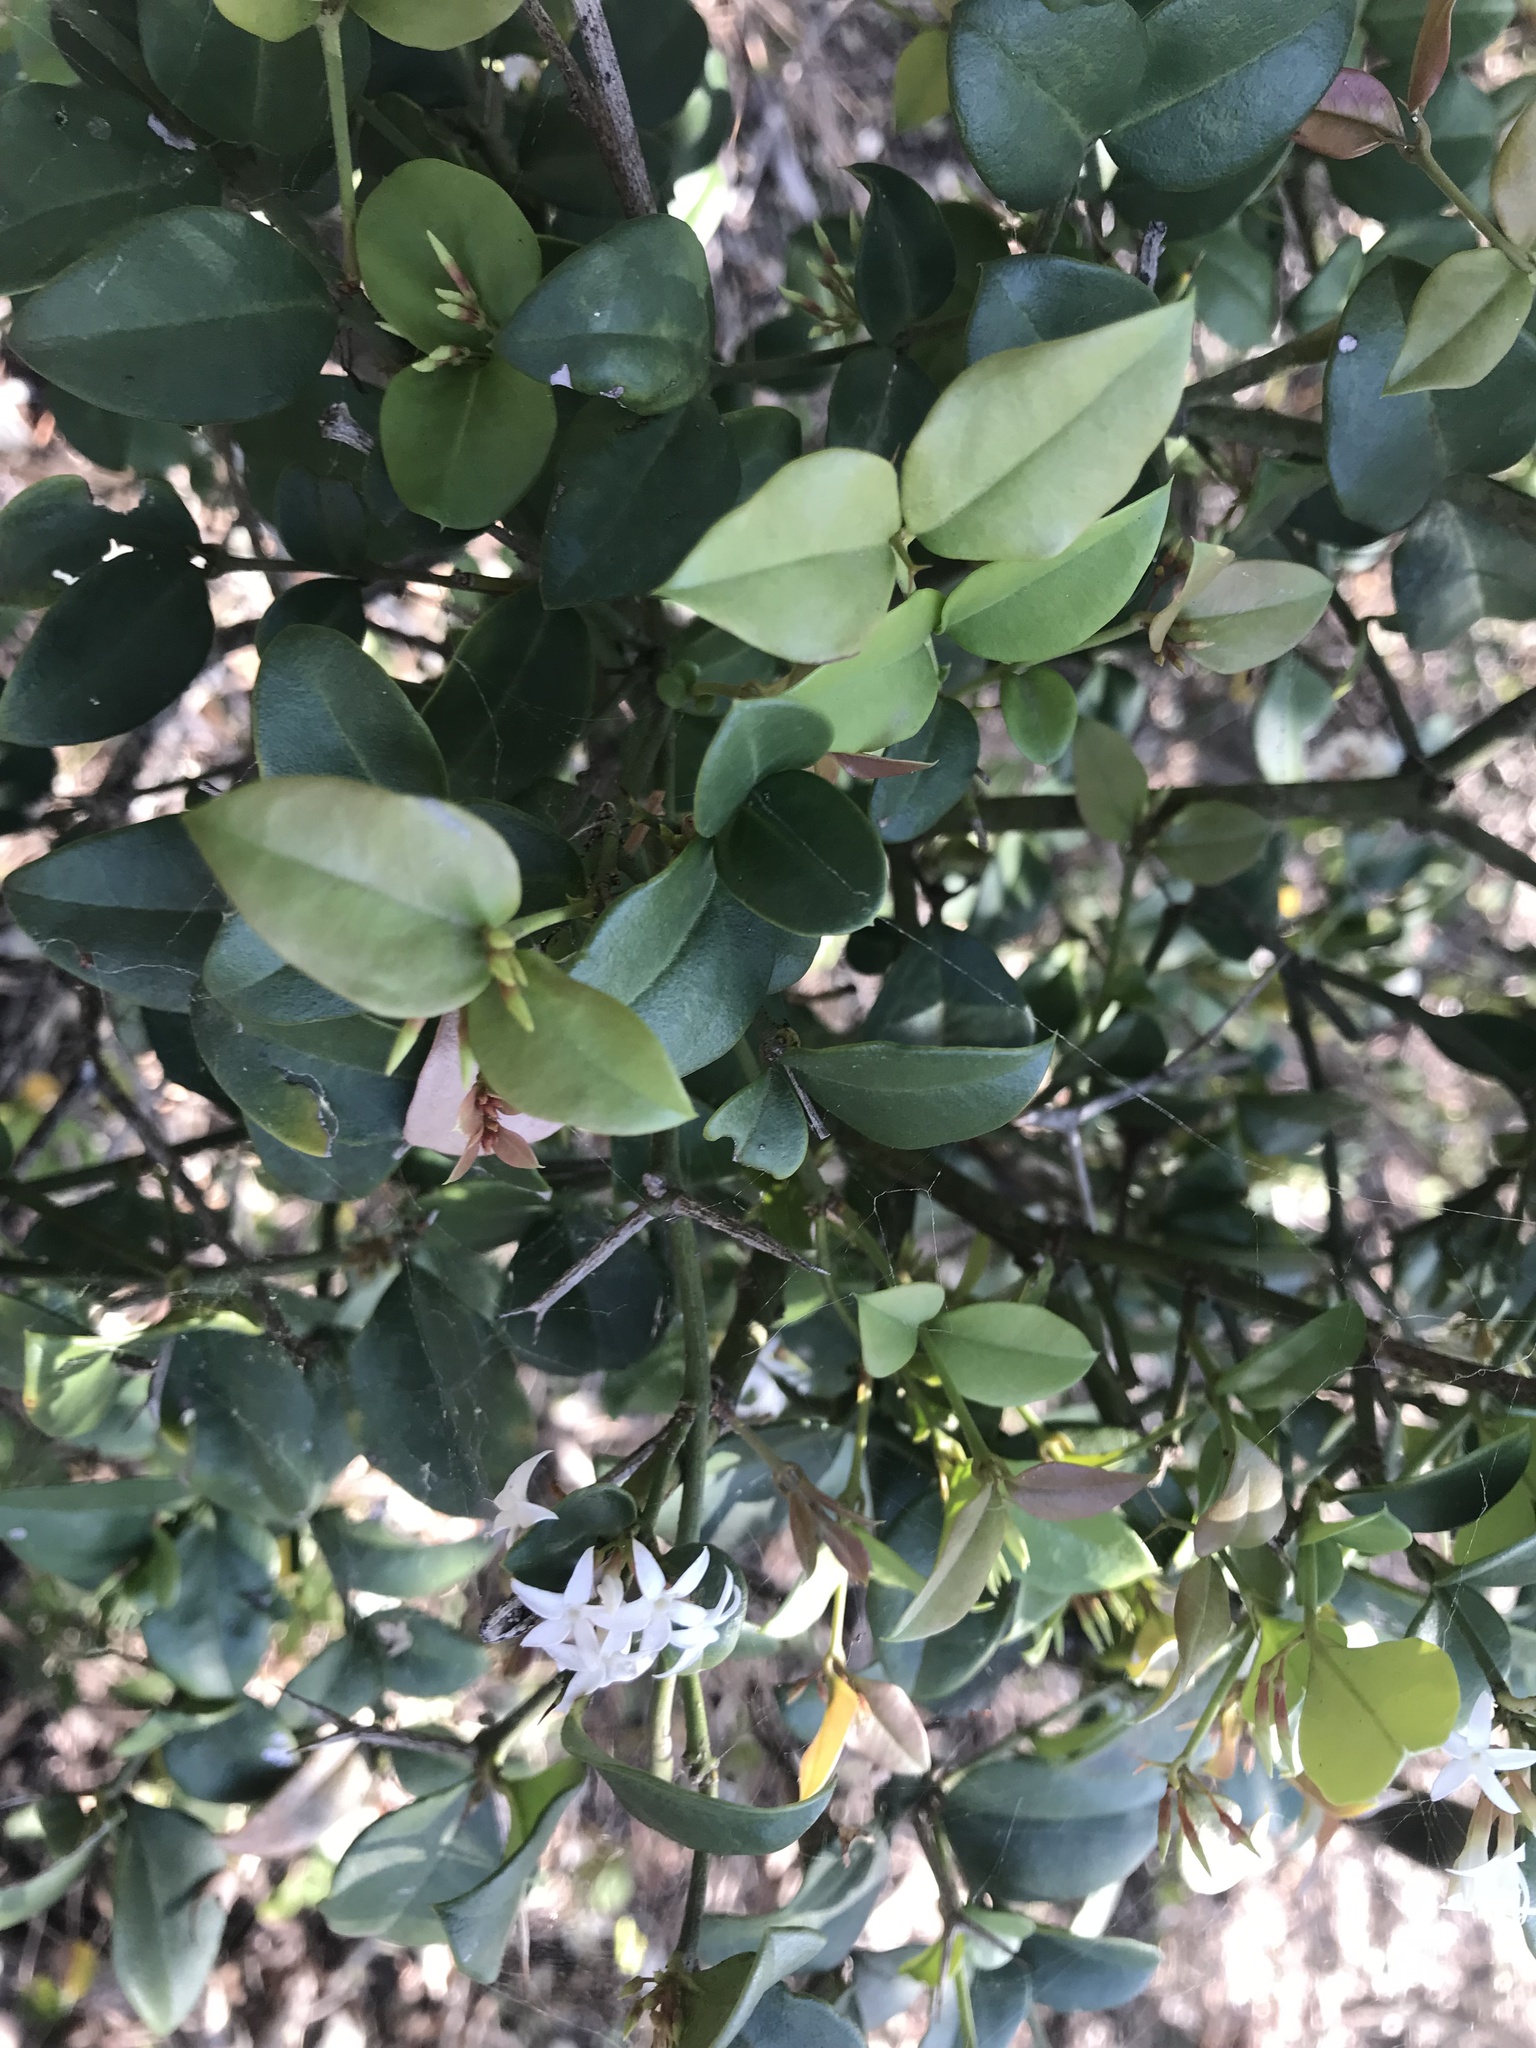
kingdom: Plantae
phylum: Tracheophyta
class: Magnoliopsida
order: Gentianales
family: Apocynaceae
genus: Carissa
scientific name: Carissa bispinosa
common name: Forest num-num
